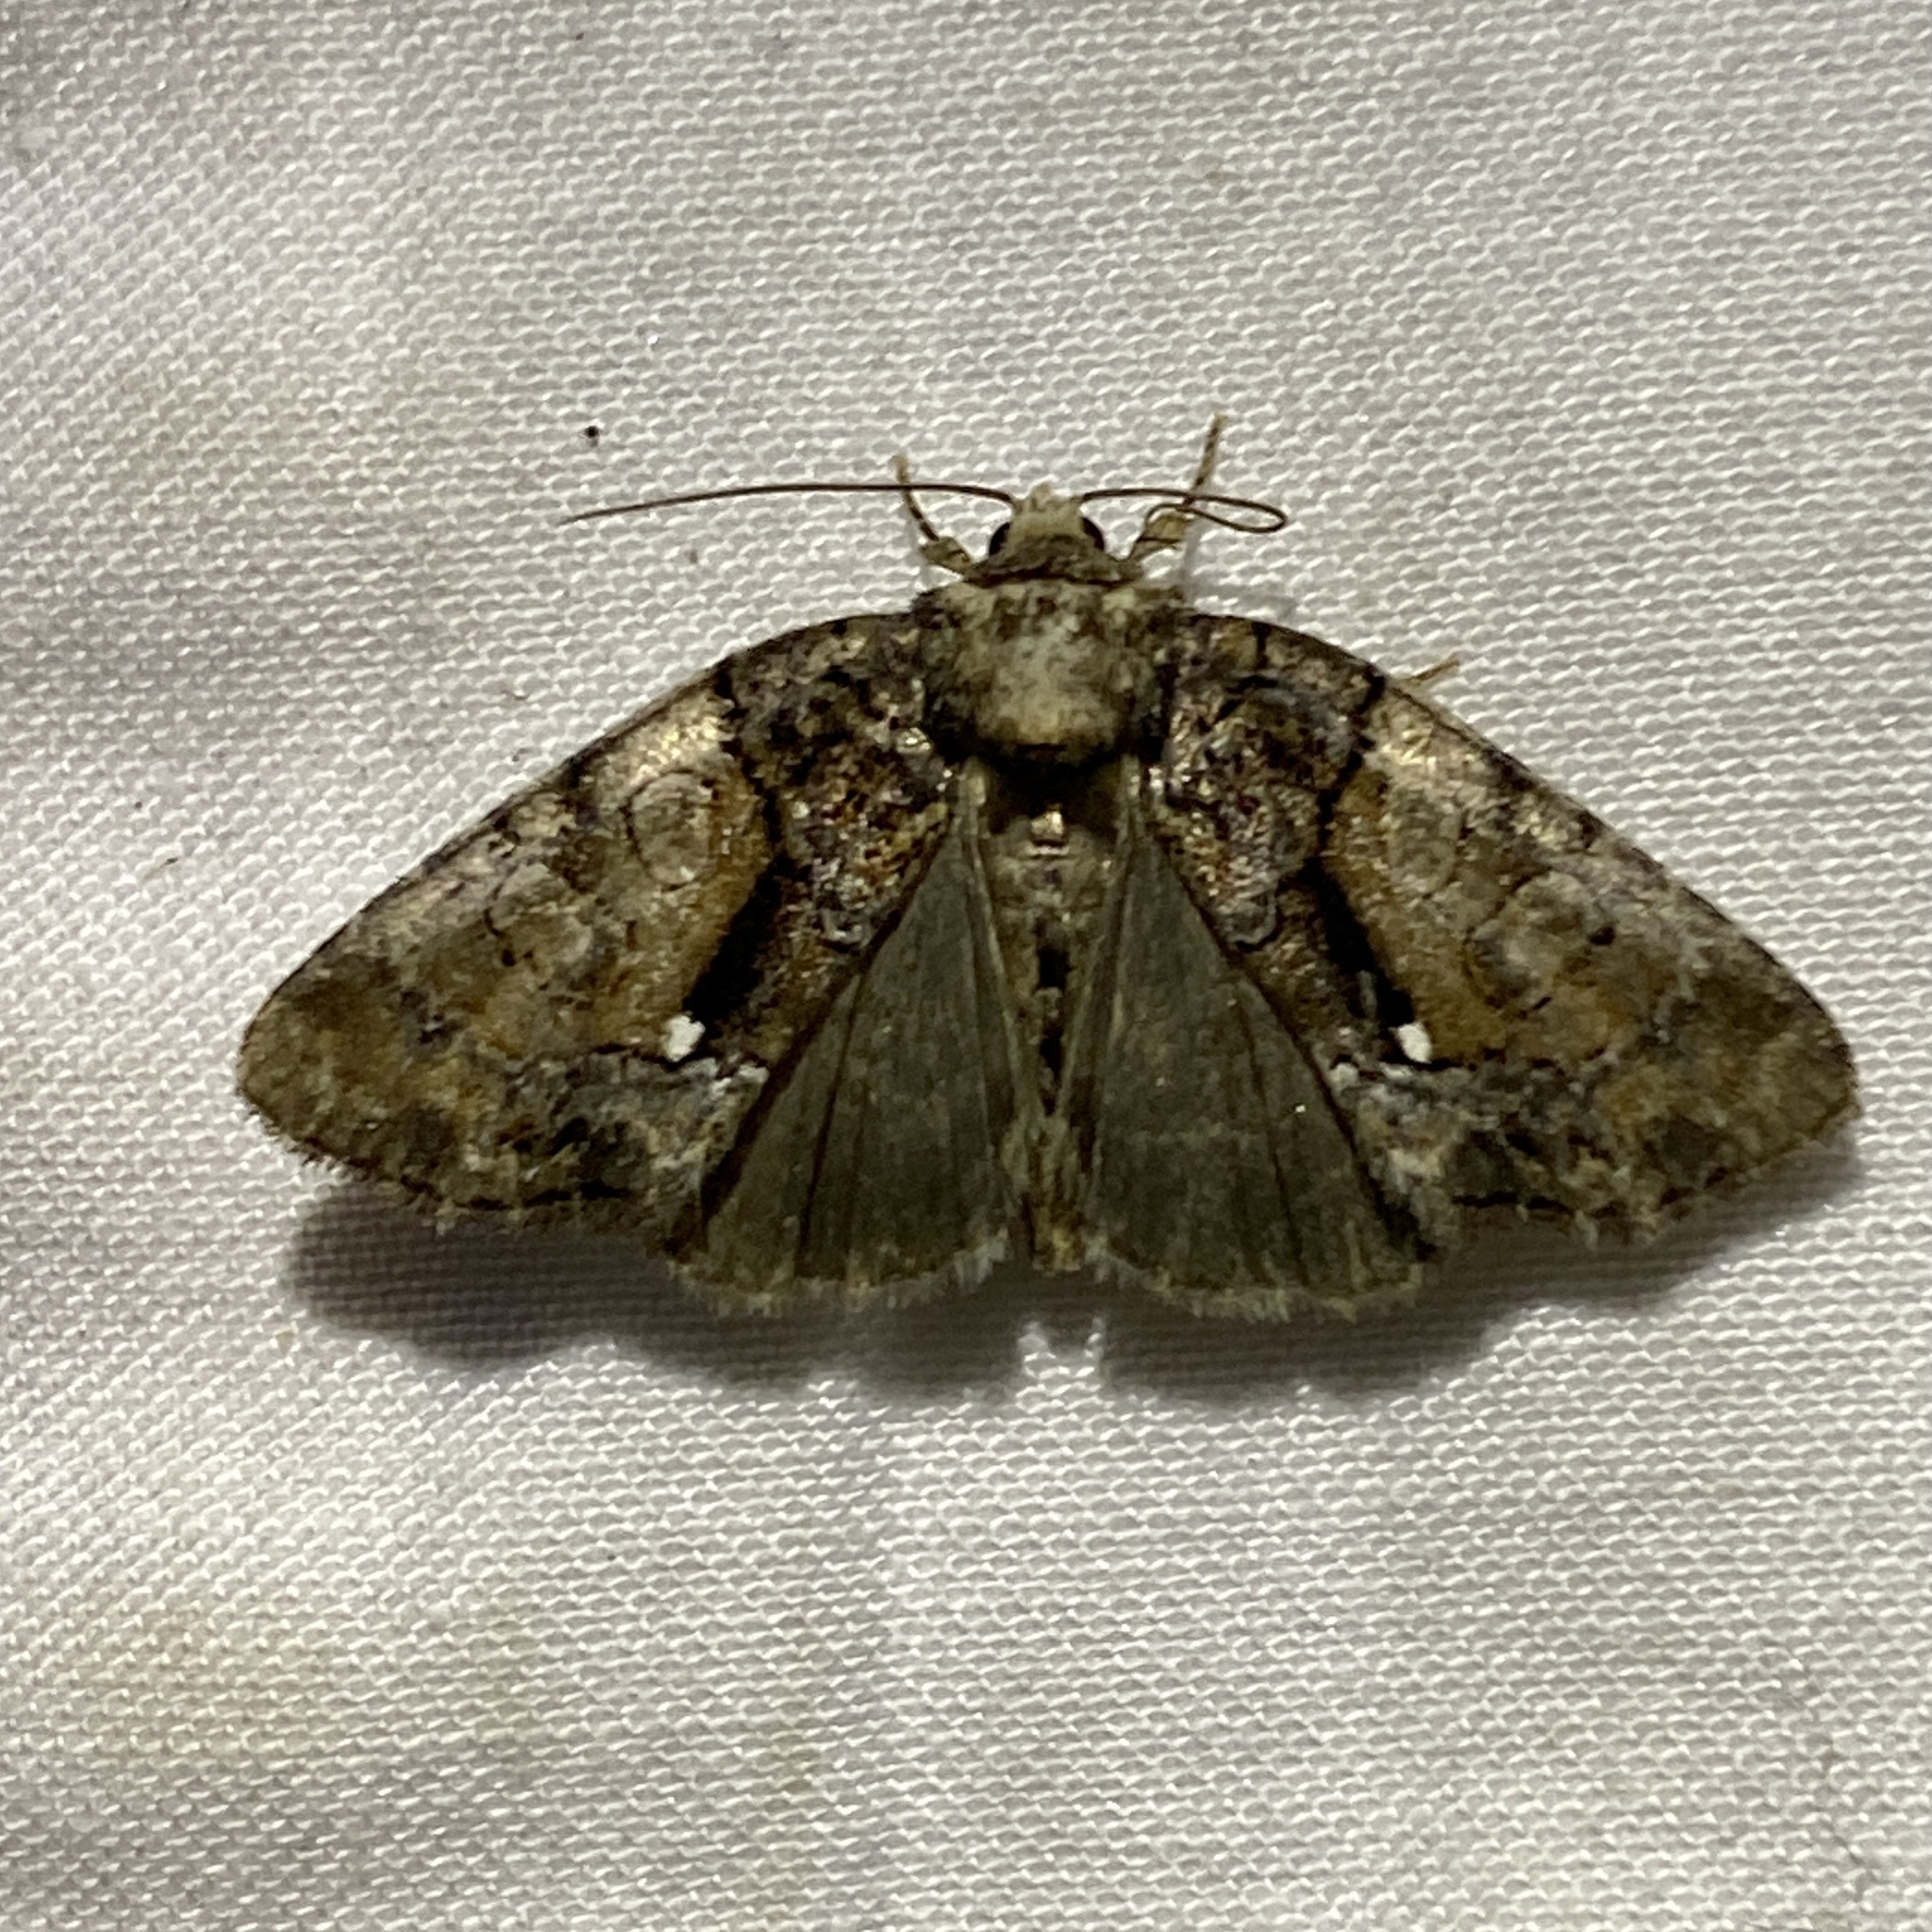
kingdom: Animalia
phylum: Arthropoda
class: Insecta
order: Lepidoptera
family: Noctuidae
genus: Chytonix
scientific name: Chytonix palliatricula
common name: Cloaked marvel
